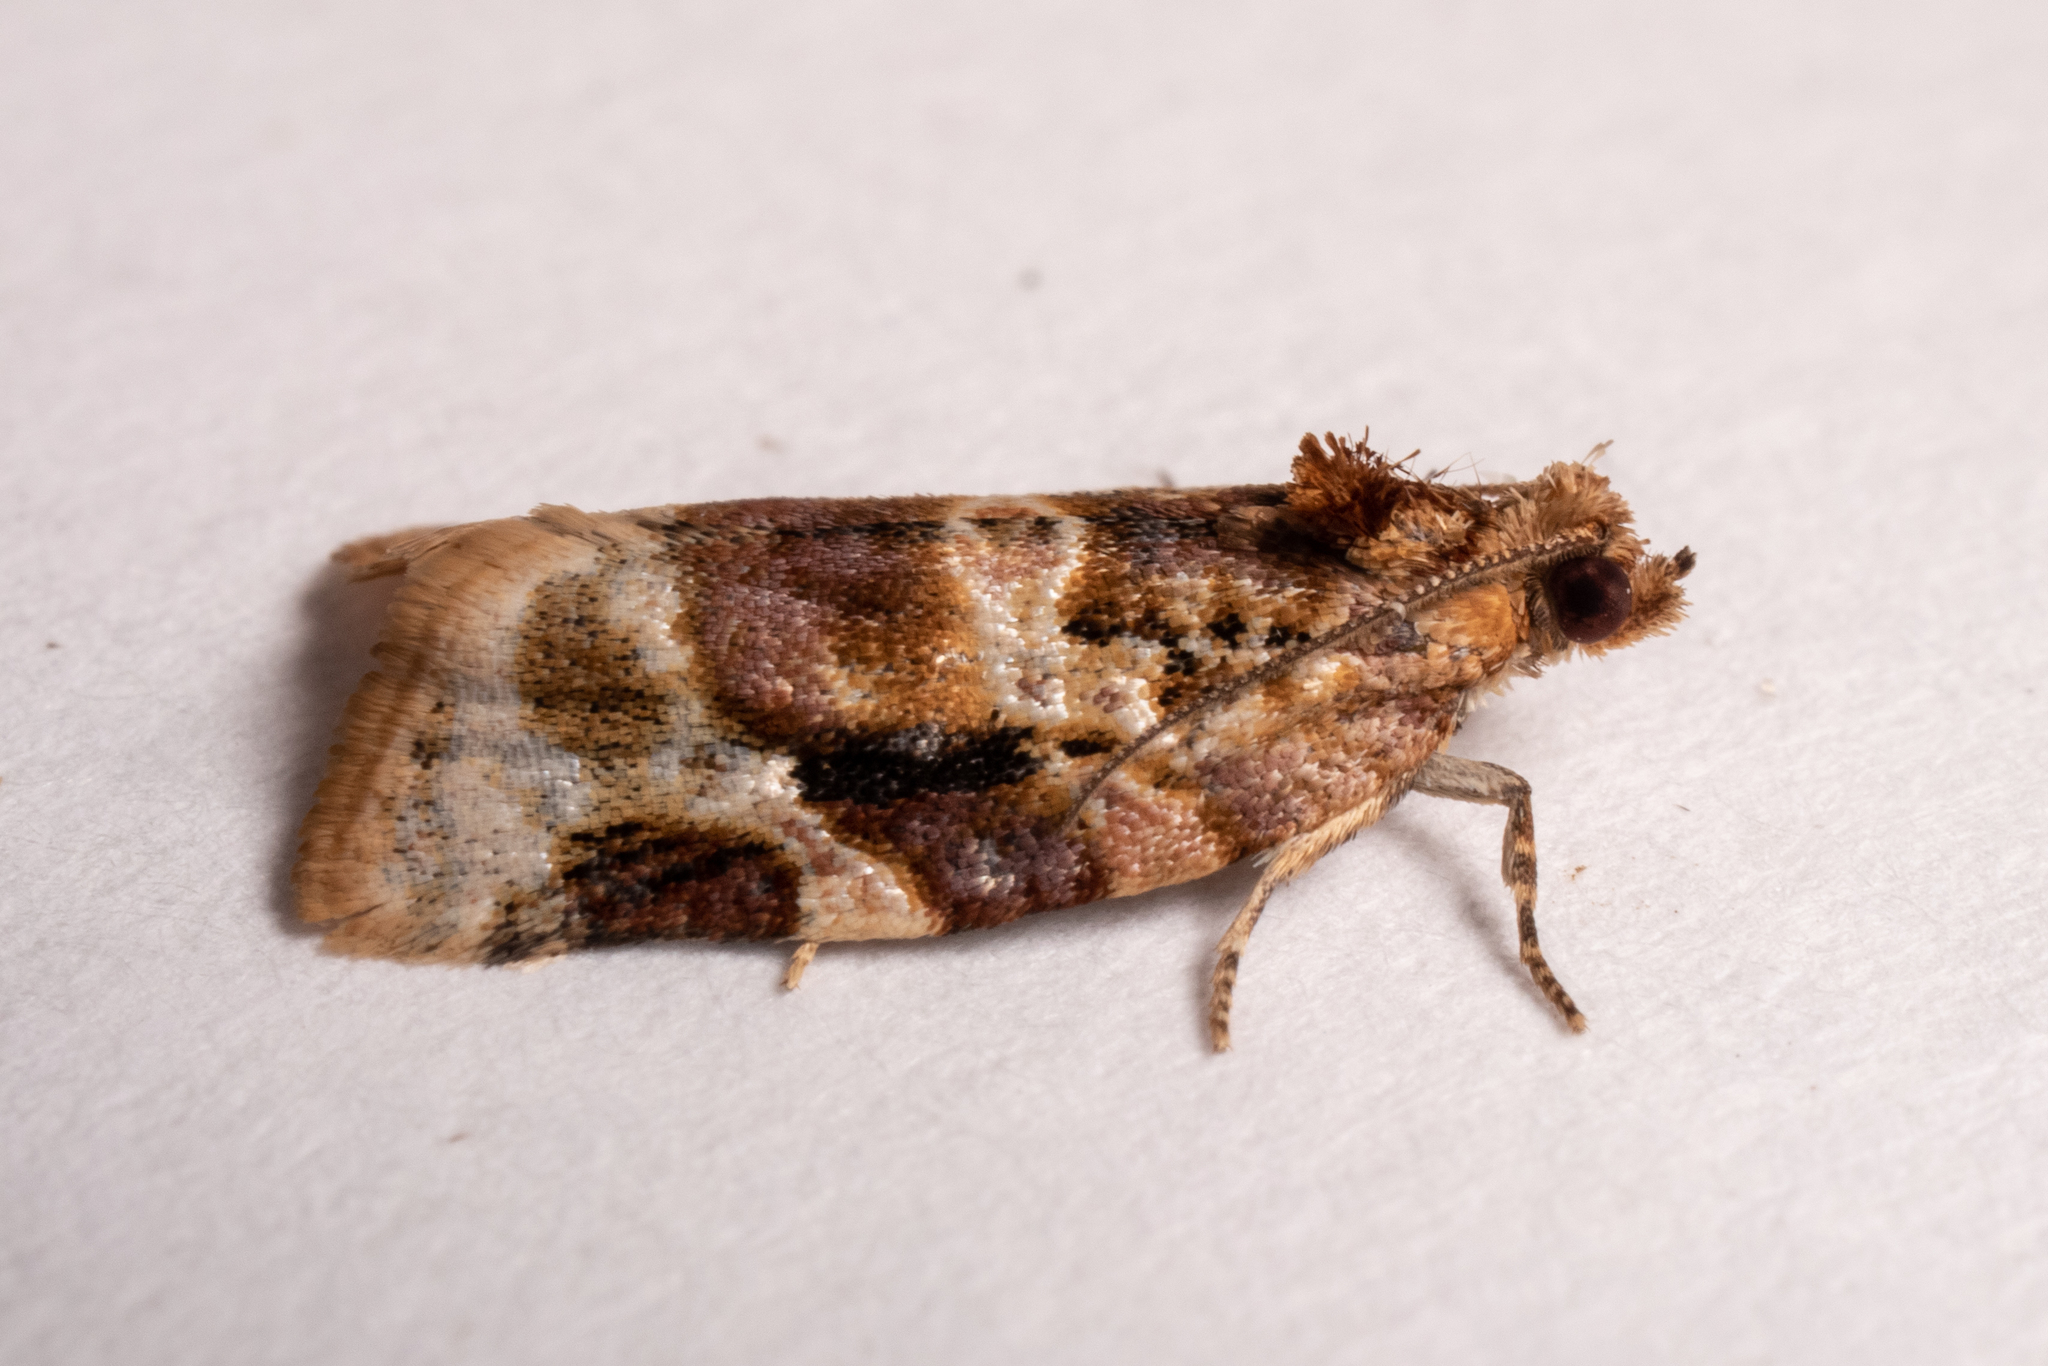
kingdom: Animalia
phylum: Arthropoda
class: Insecta
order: Lepidoptera
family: Tortricidae
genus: Argyrotaenia
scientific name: Argyrotaenia velutinana
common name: Red-banded leafroller moth
